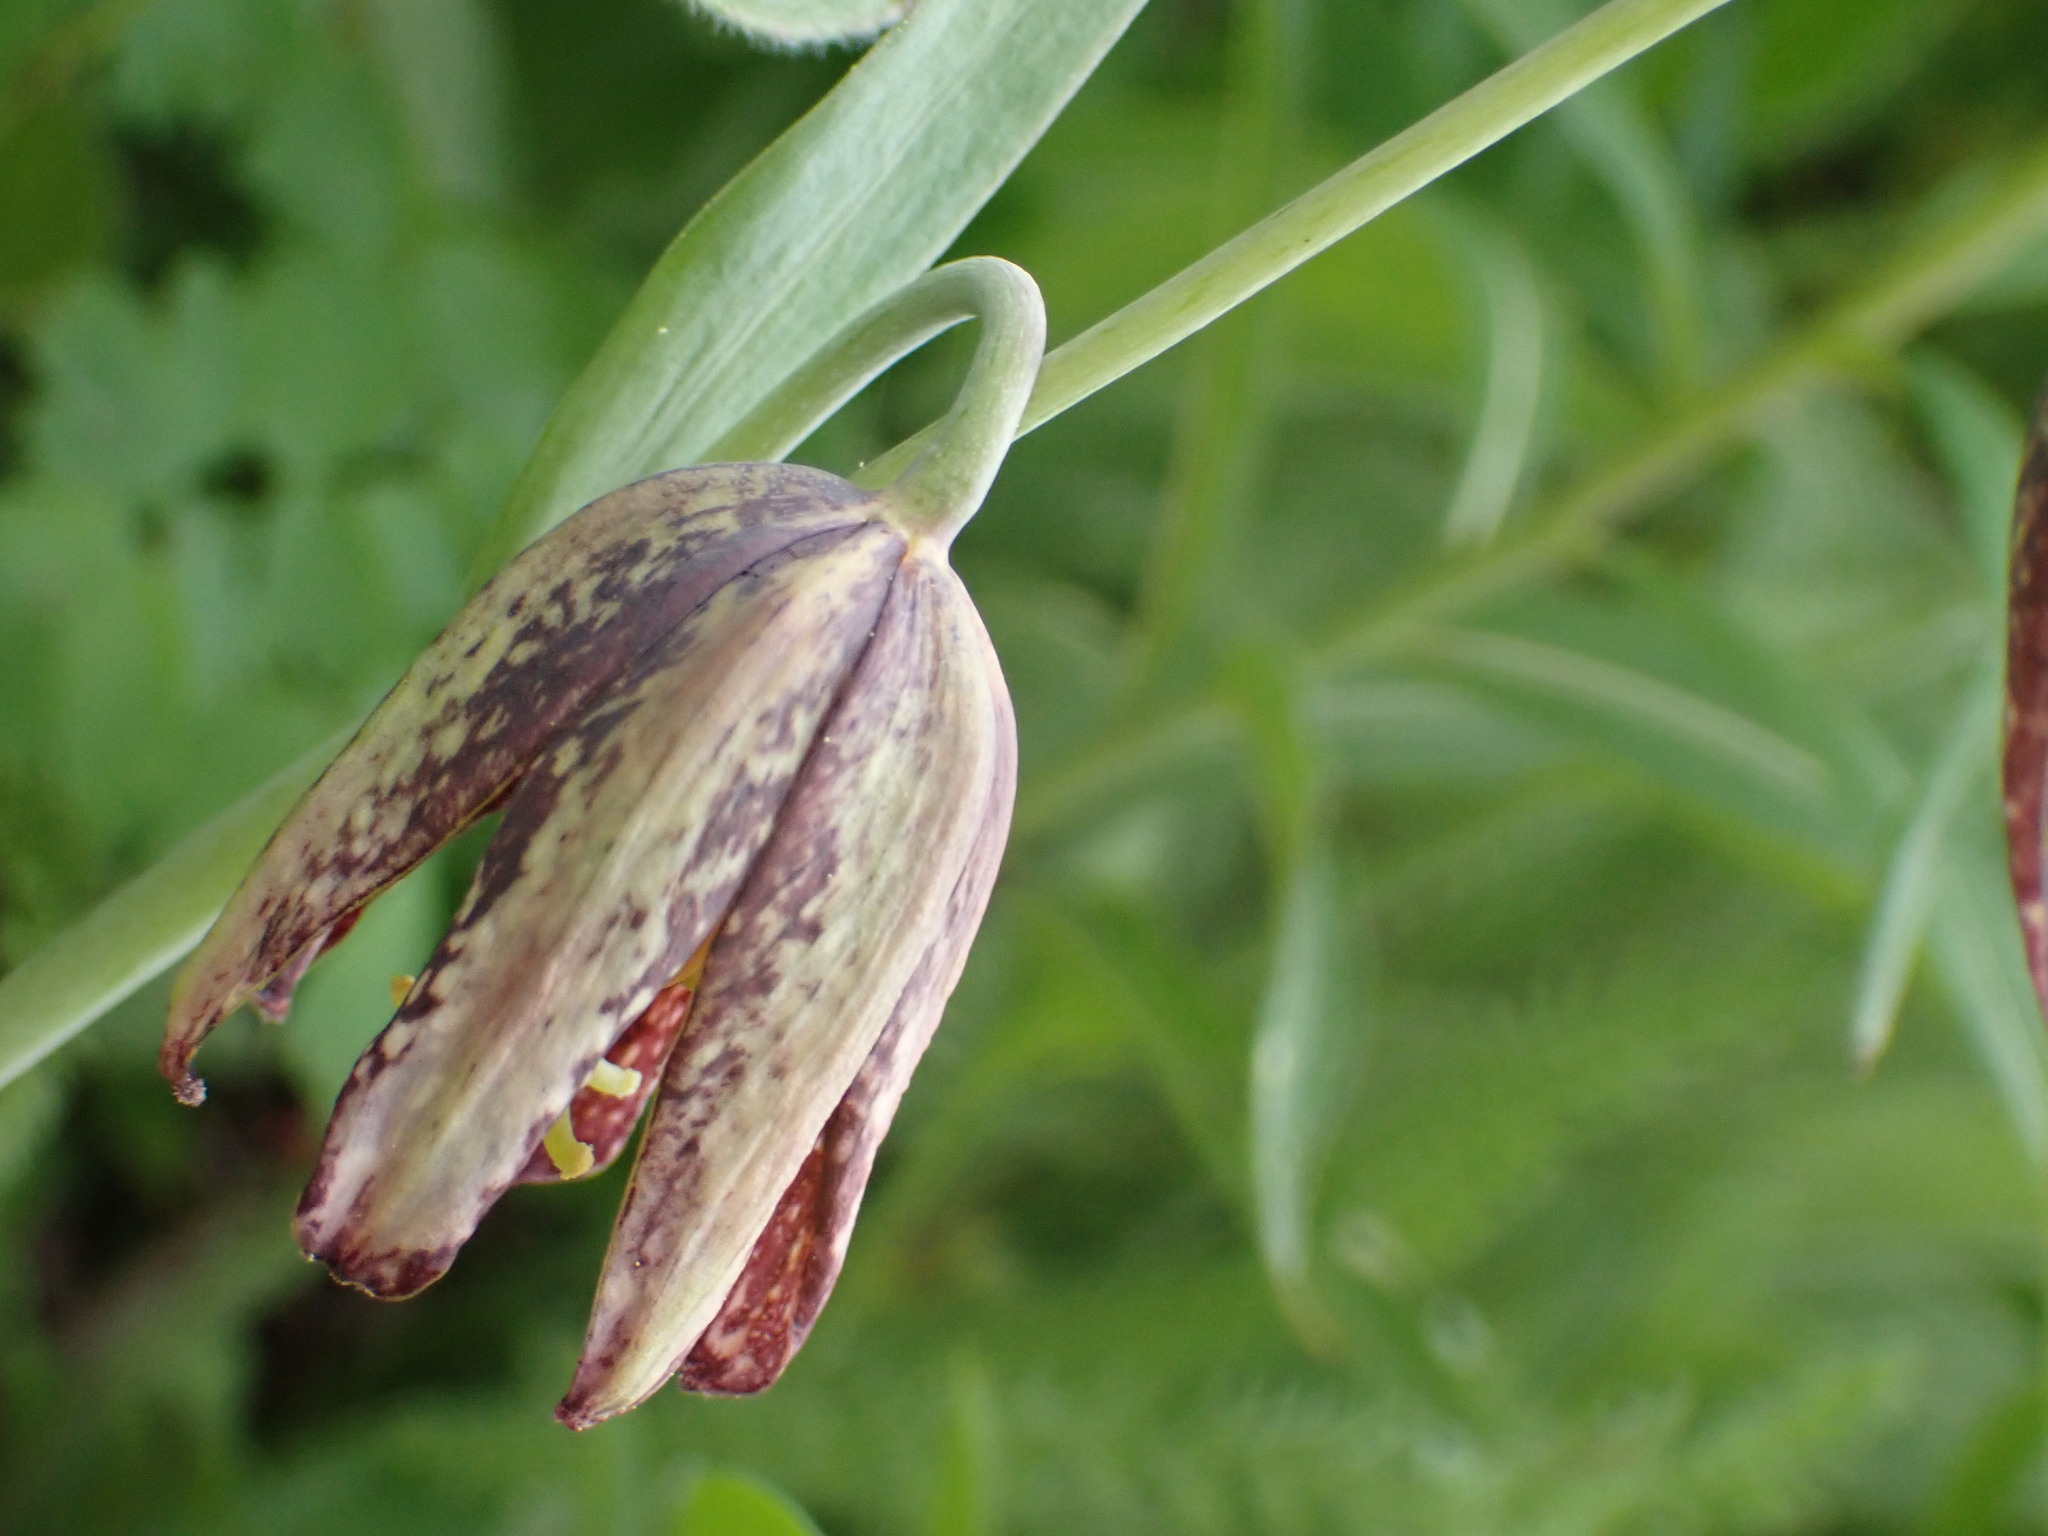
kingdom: Plantae
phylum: Tracheophyta
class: Liliopsida
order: Liliales
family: Liliaceae
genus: Fritillaria
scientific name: Fritillaria affinis
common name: Ojai fritillary
